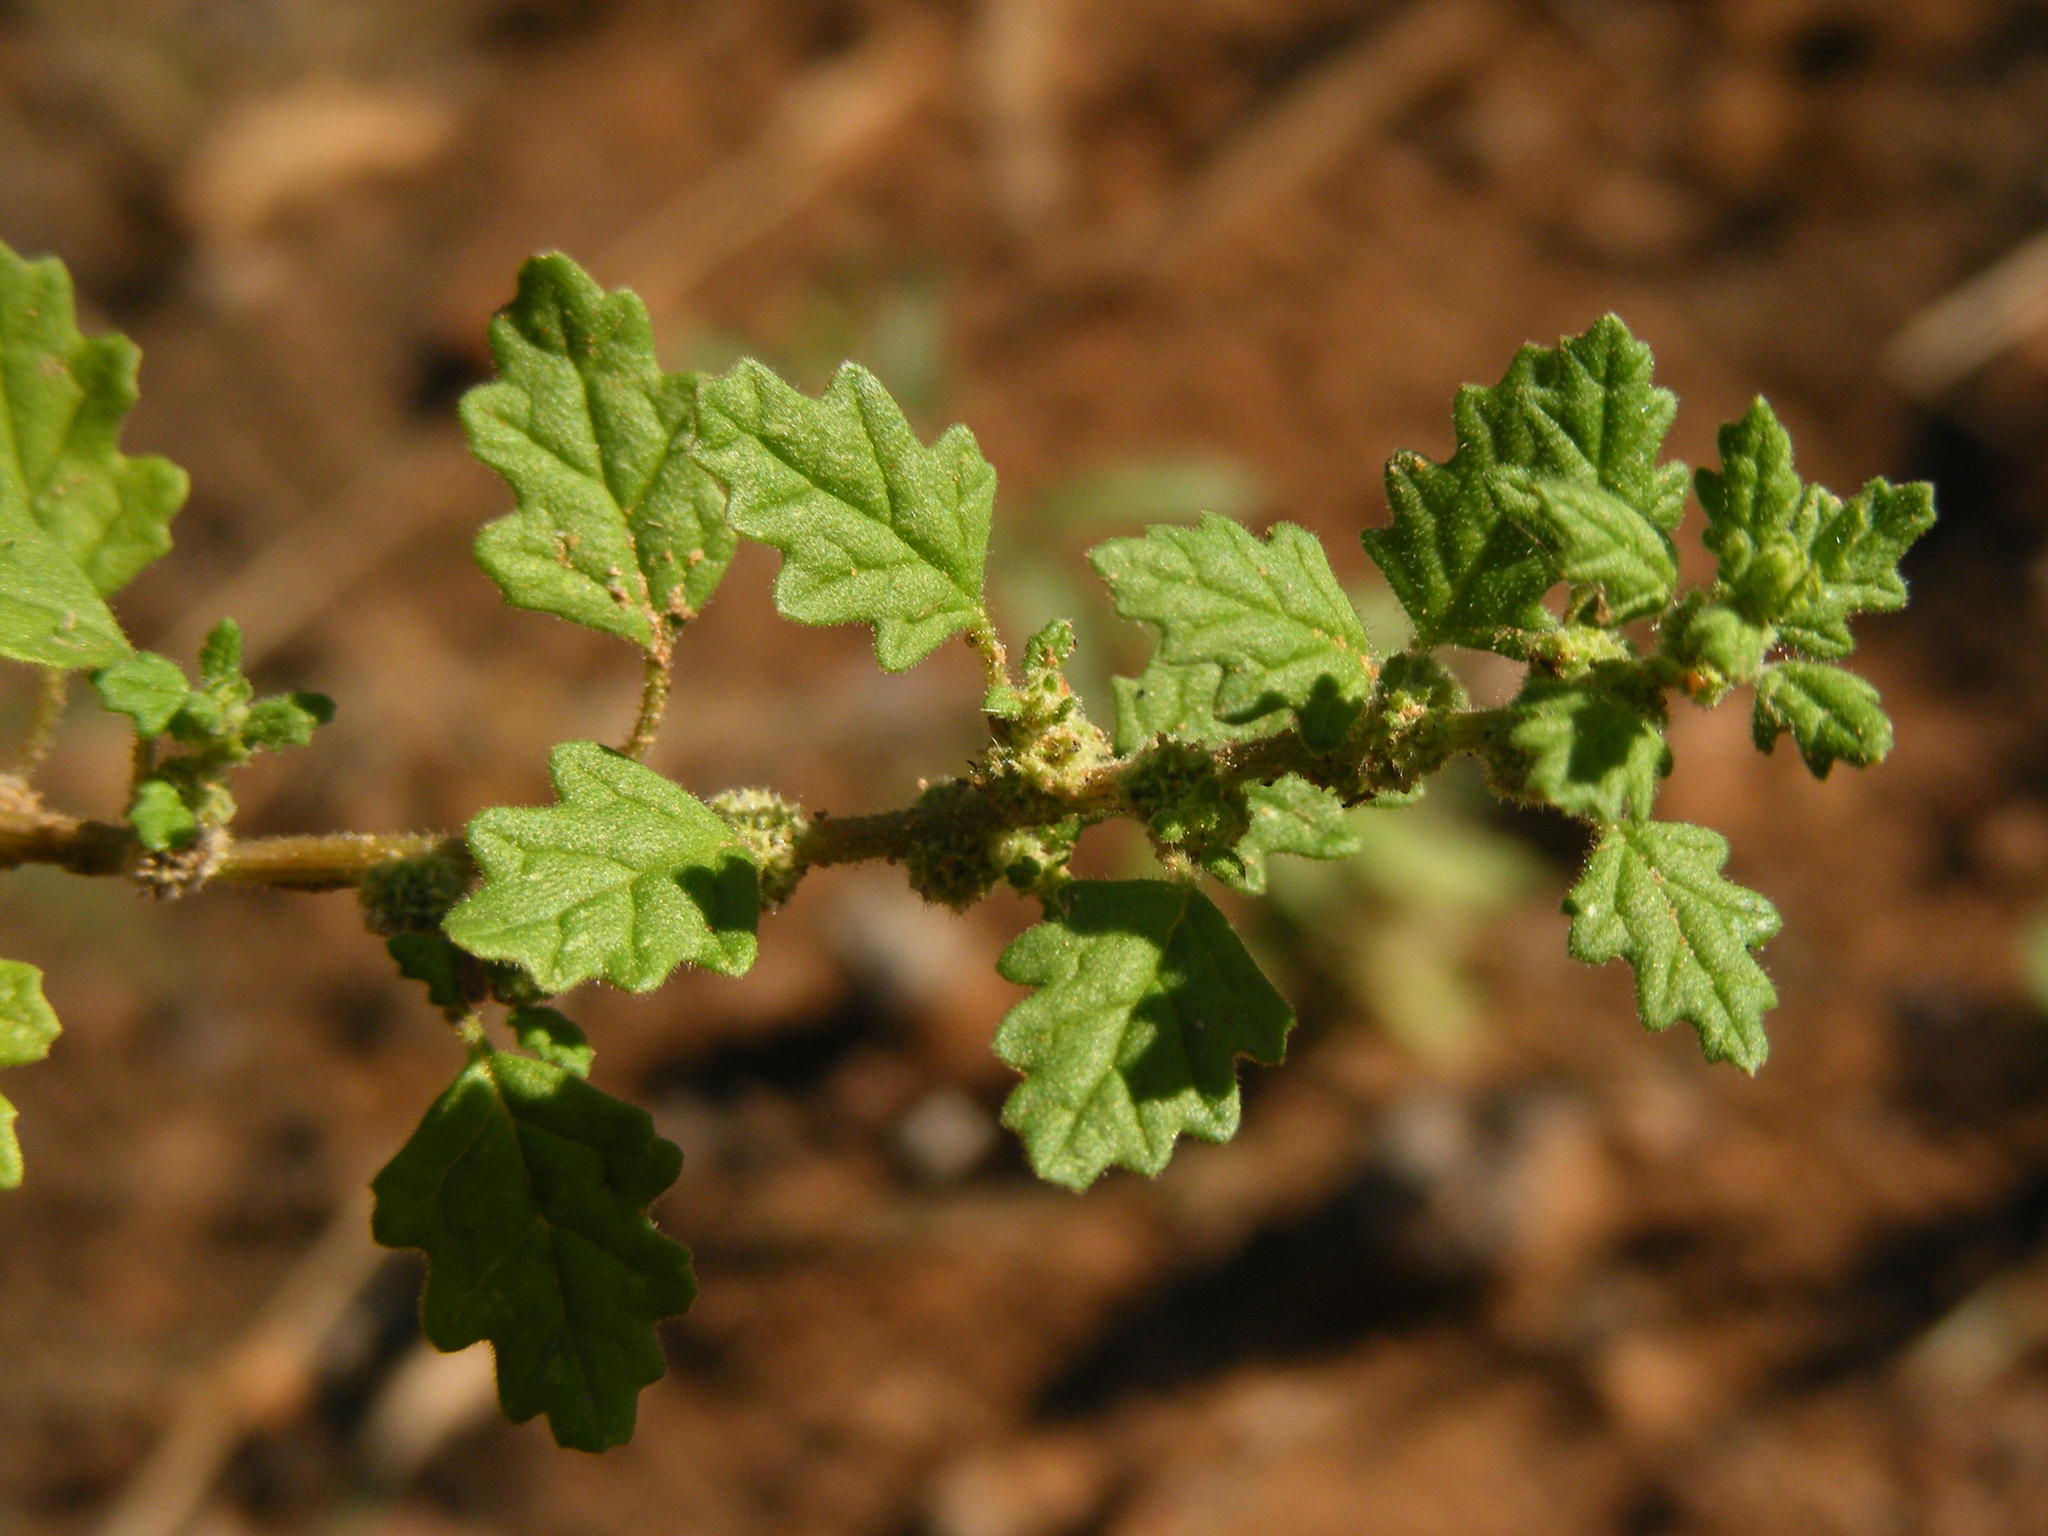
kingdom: Plantae
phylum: Tracheophyta
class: Magnoliopsida
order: Caryophyllales
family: Amaranthaceae
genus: Dysphania
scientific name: Dysphania carinata
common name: Keeled wormseed
